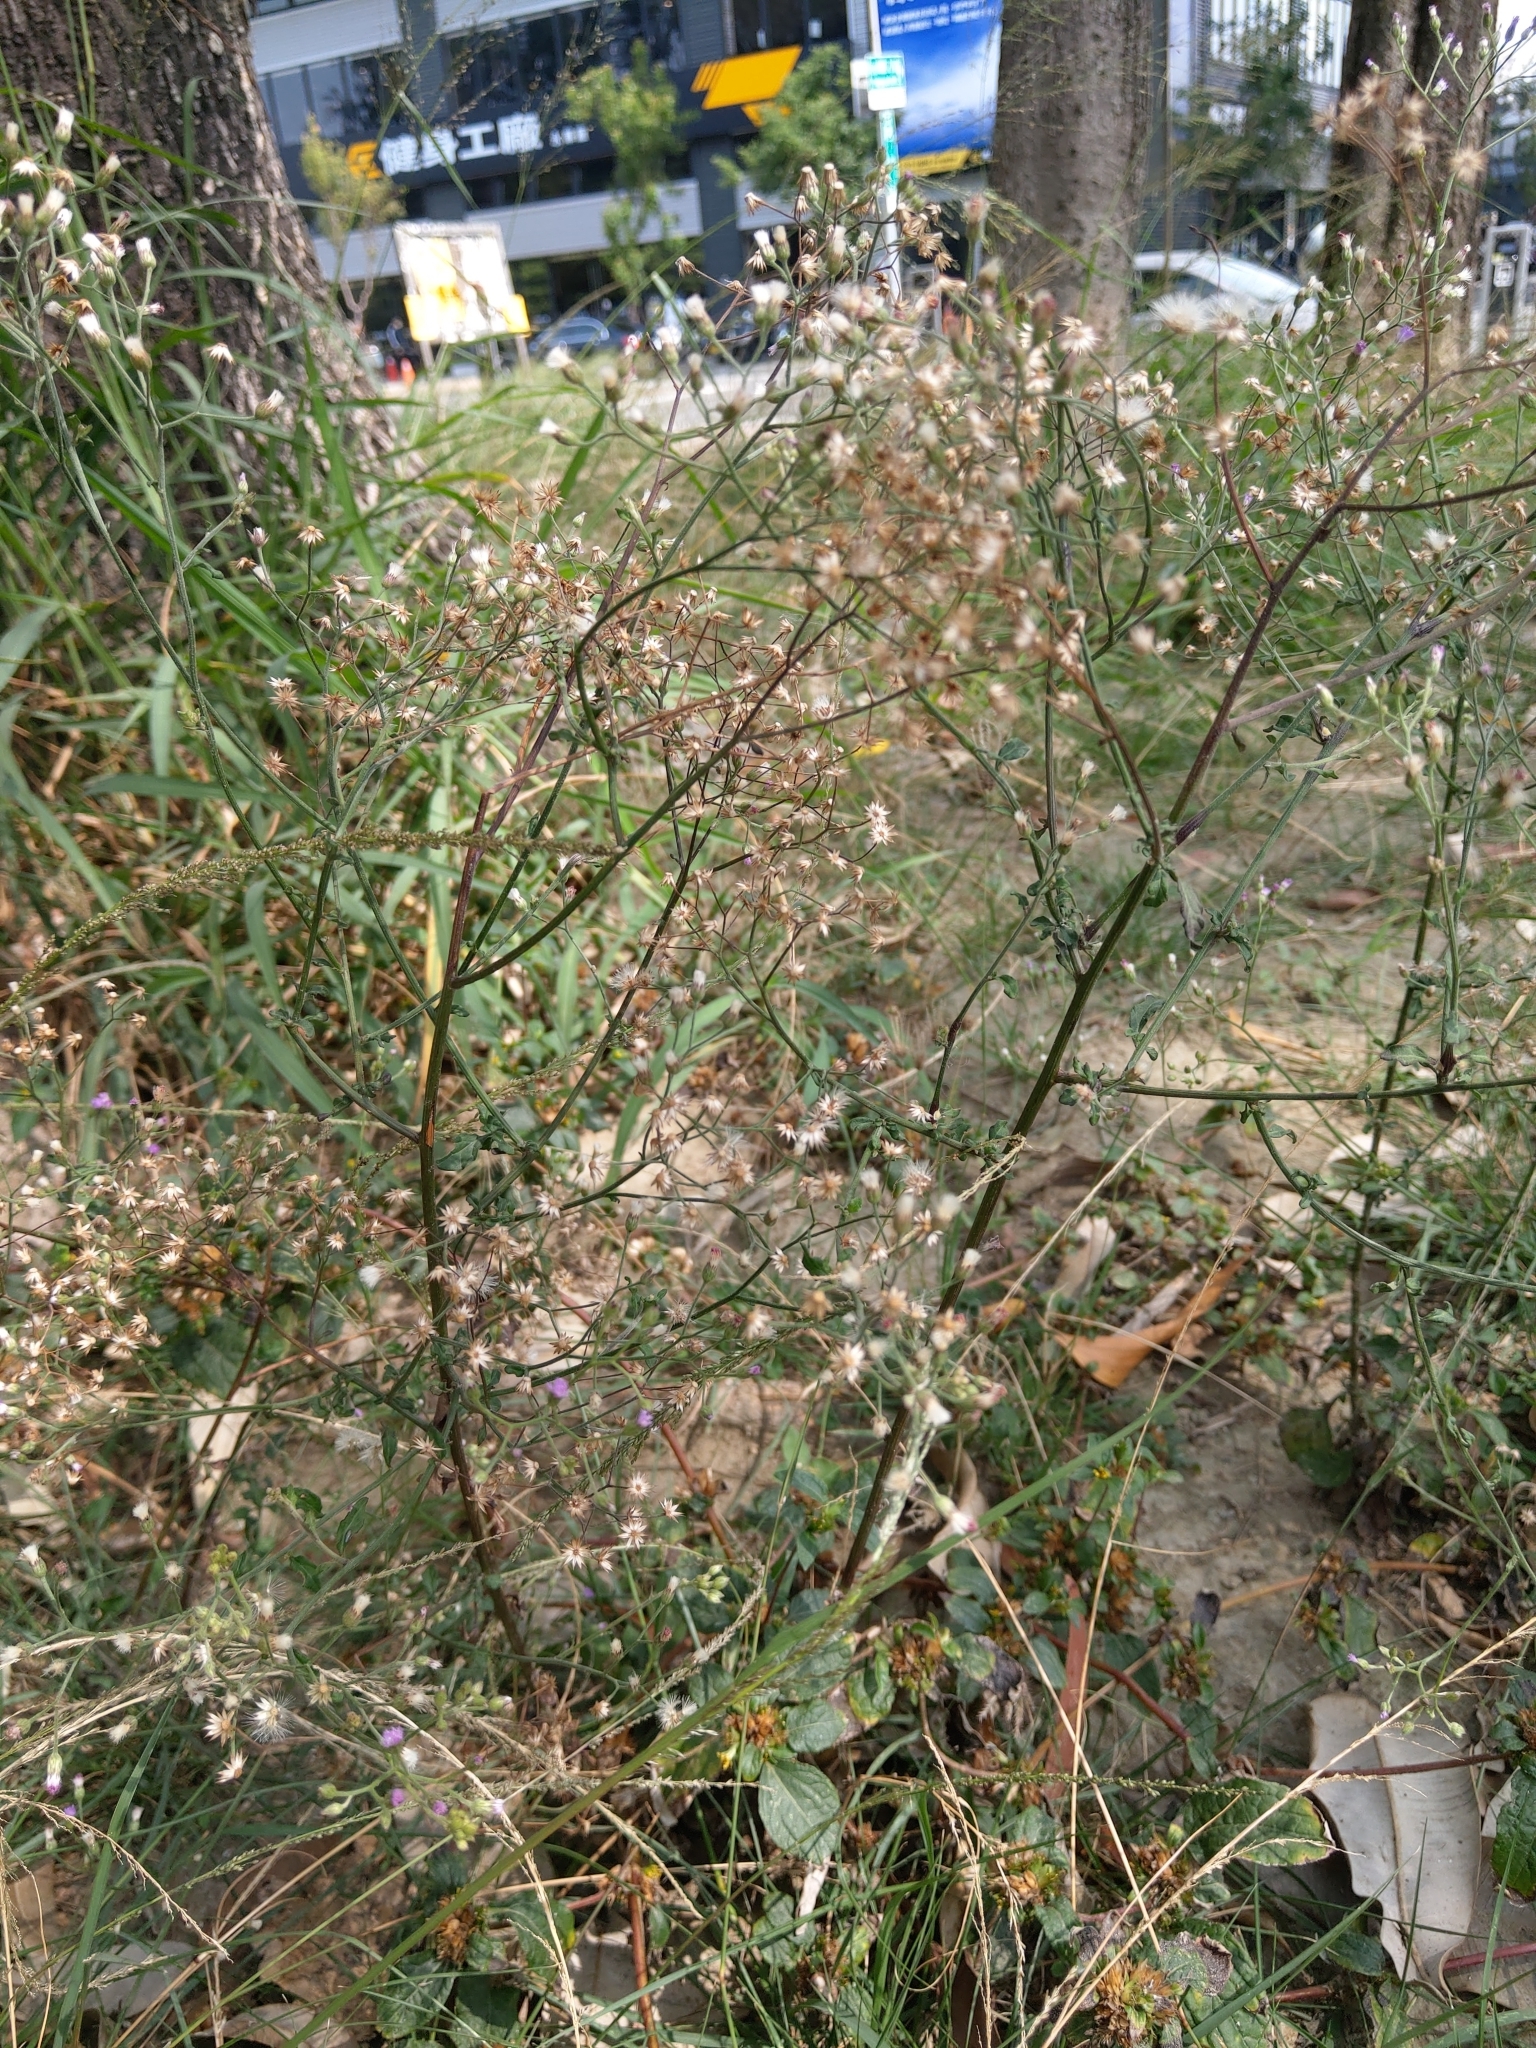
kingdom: Plantae
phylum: Tracheophyta
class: Magnoliopsida
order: Asterales
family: Asteraceae
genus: Cyanthillium
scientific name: Cyanthillium cinereum
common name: Little ironweed
